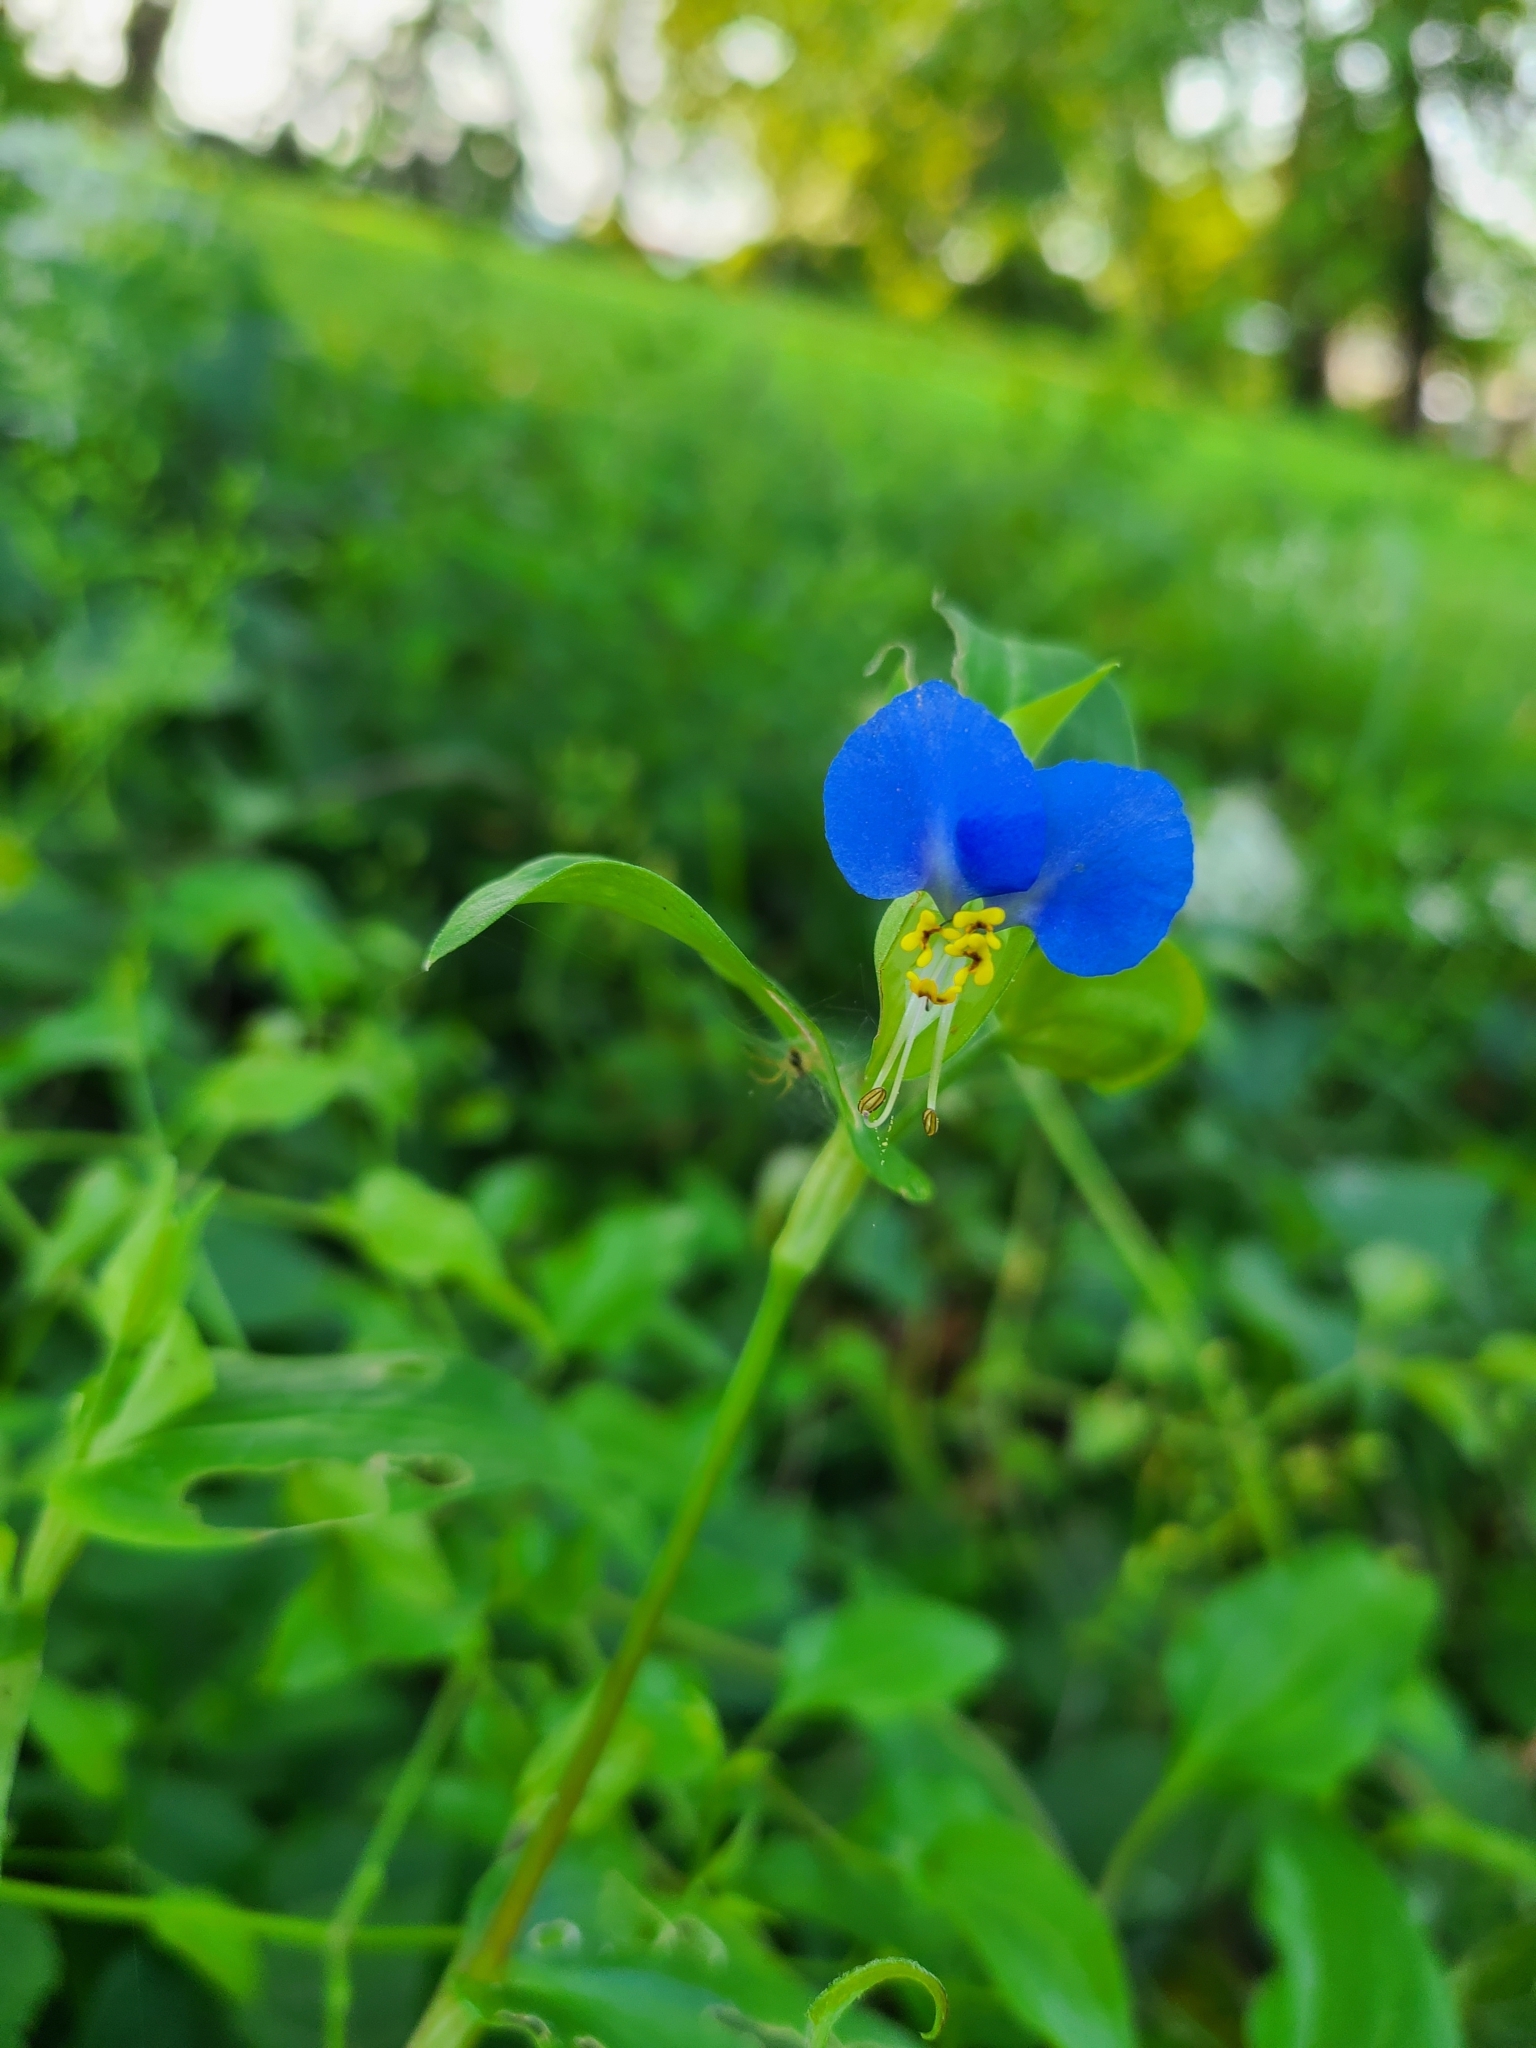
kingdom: Plantae
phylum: Tracheophyta
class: Liliopsida
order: Commelinales
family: Commelinaceae
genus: Commelina
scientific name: Commelina communis
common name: Asiatic dayflower
